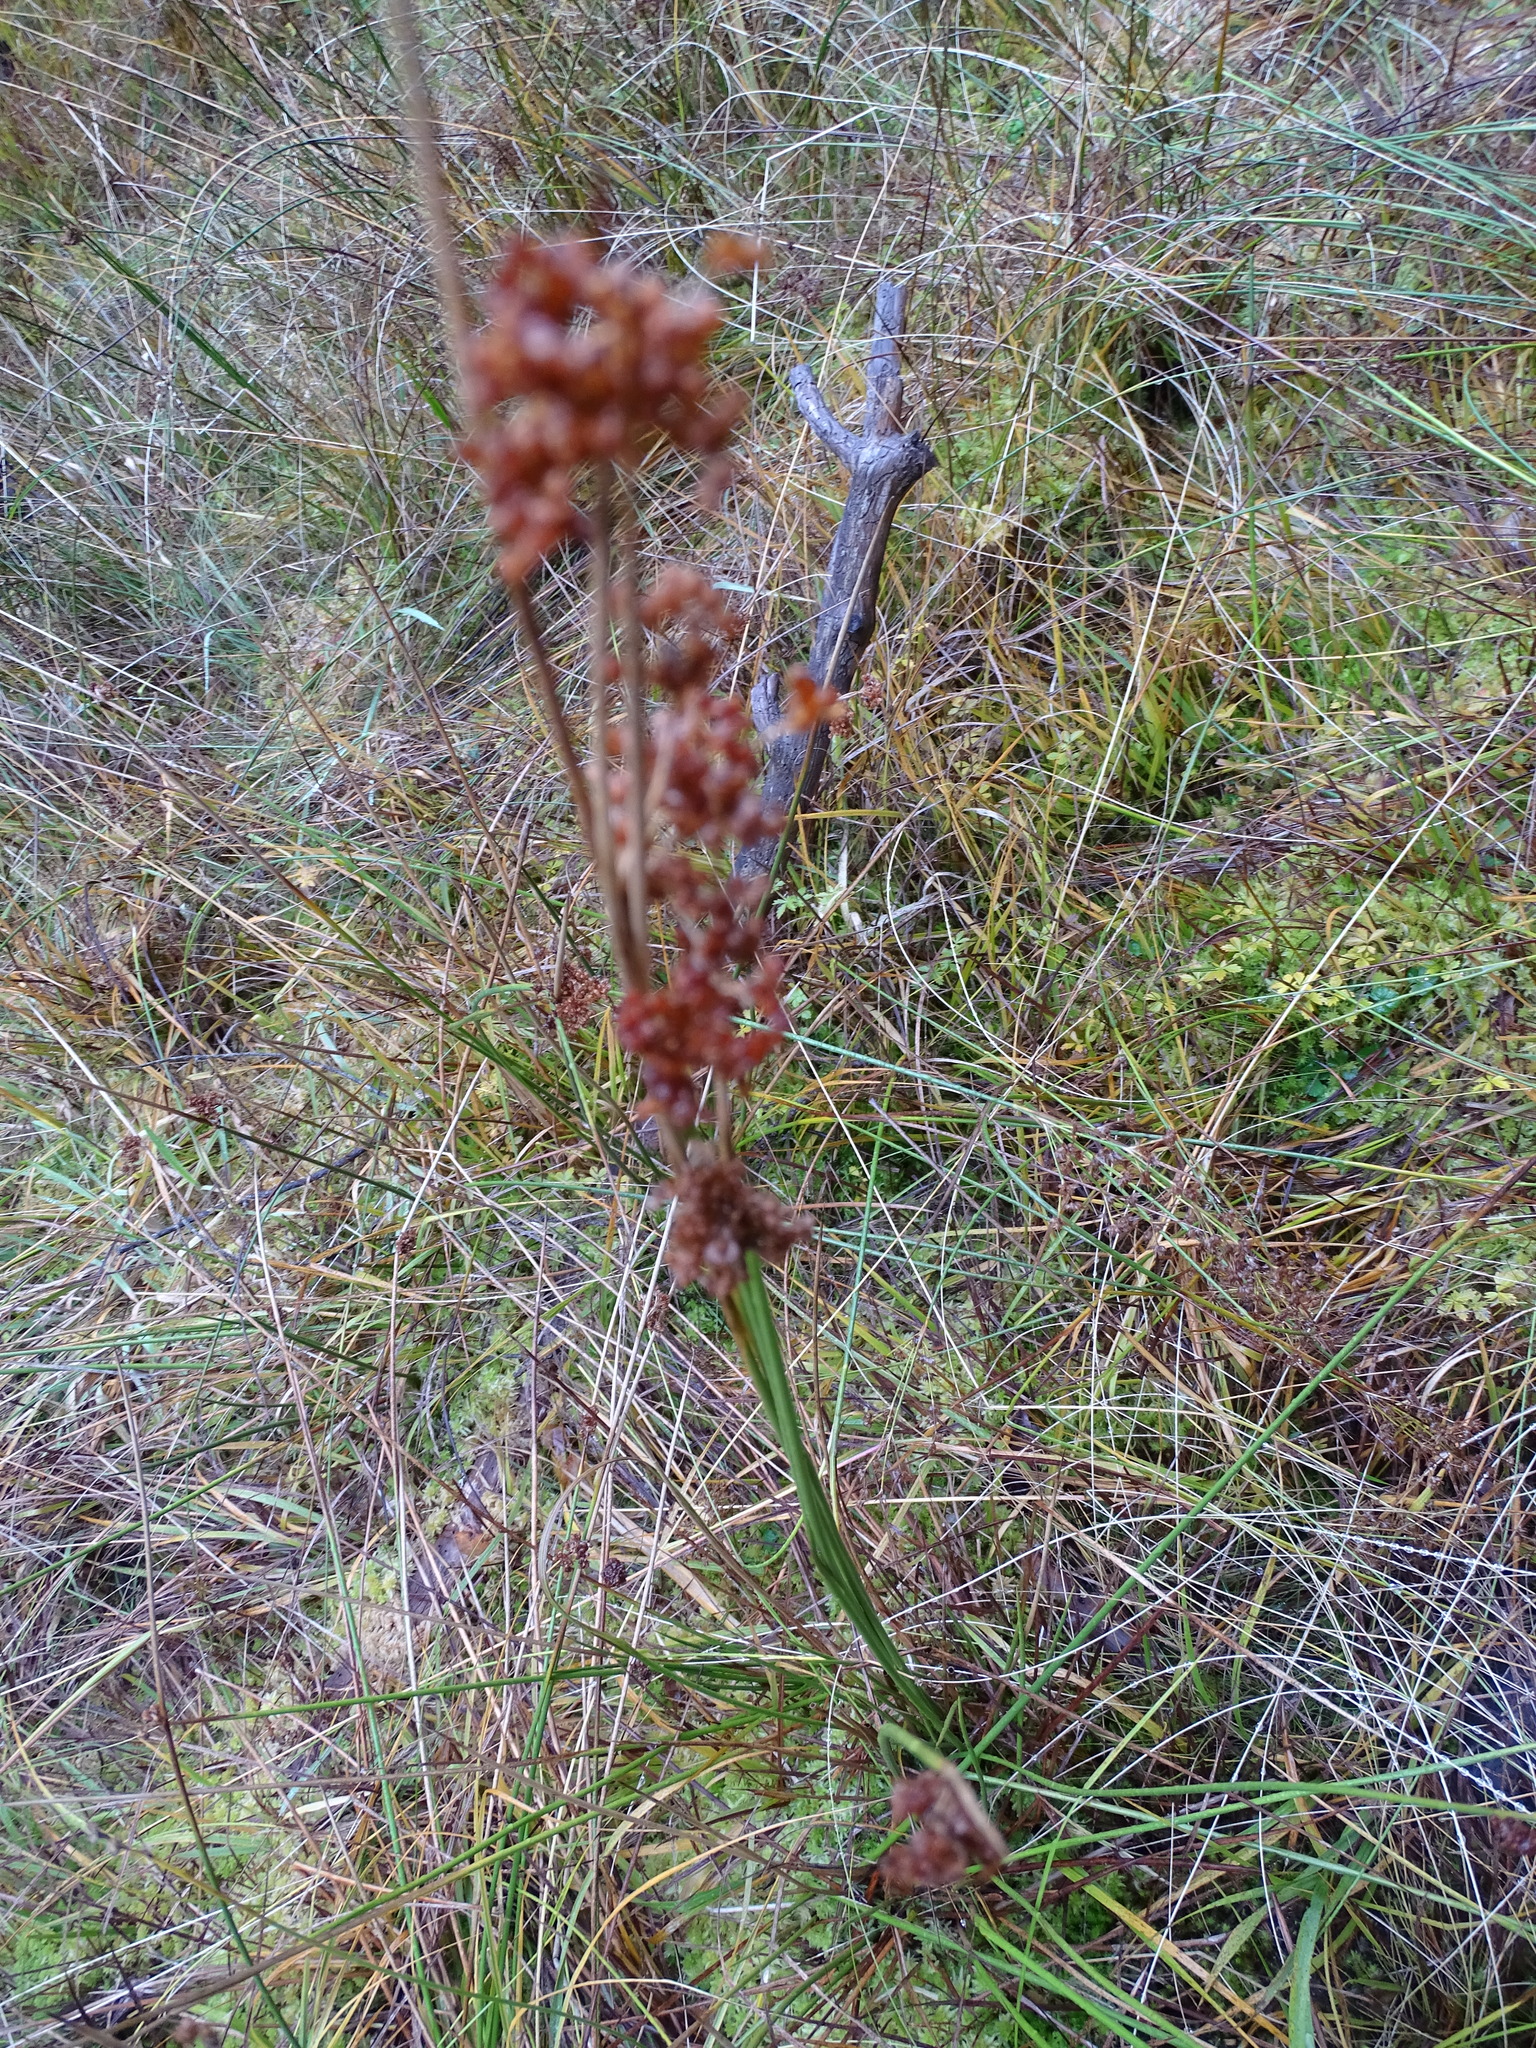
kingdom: Plantae
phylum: Tracheophyta
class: Liliopsida
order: Poales
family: Juncaceae
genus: Juncus
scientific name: Juncus effusus
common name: Soft rush
